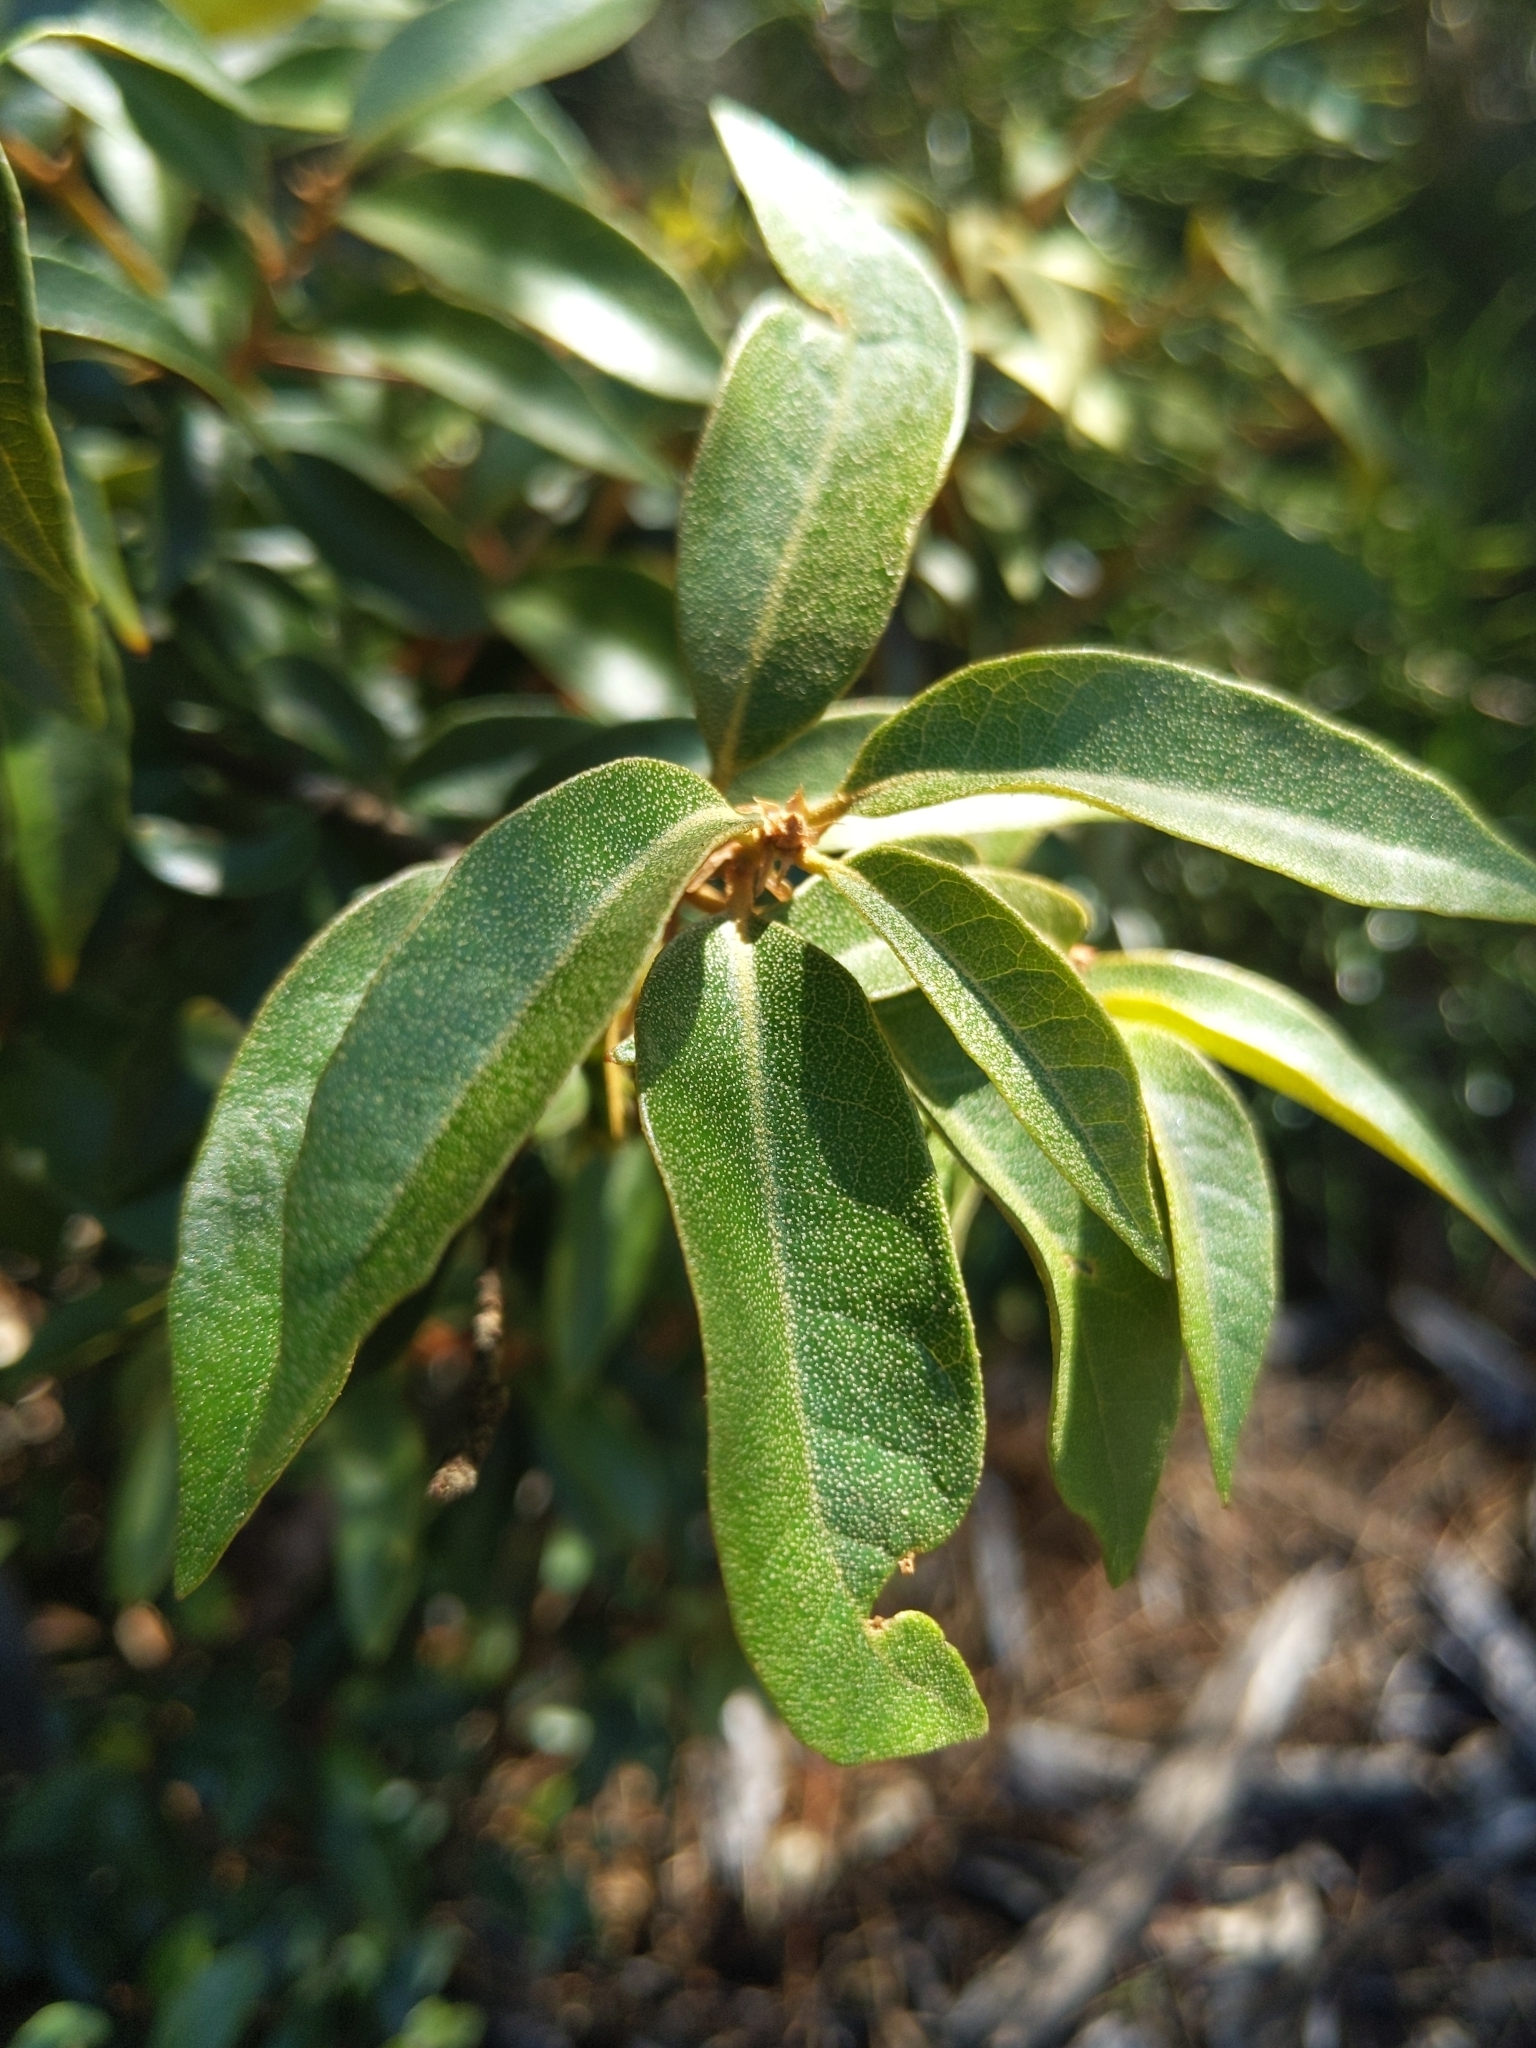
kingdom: Plantae
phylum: Tracheophyta
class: Magnoliopsida
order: Fagales
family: Fagaceae
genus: Chrysolepis
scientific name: Chrysolepis chrysophylla
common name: Giant chinquapin
